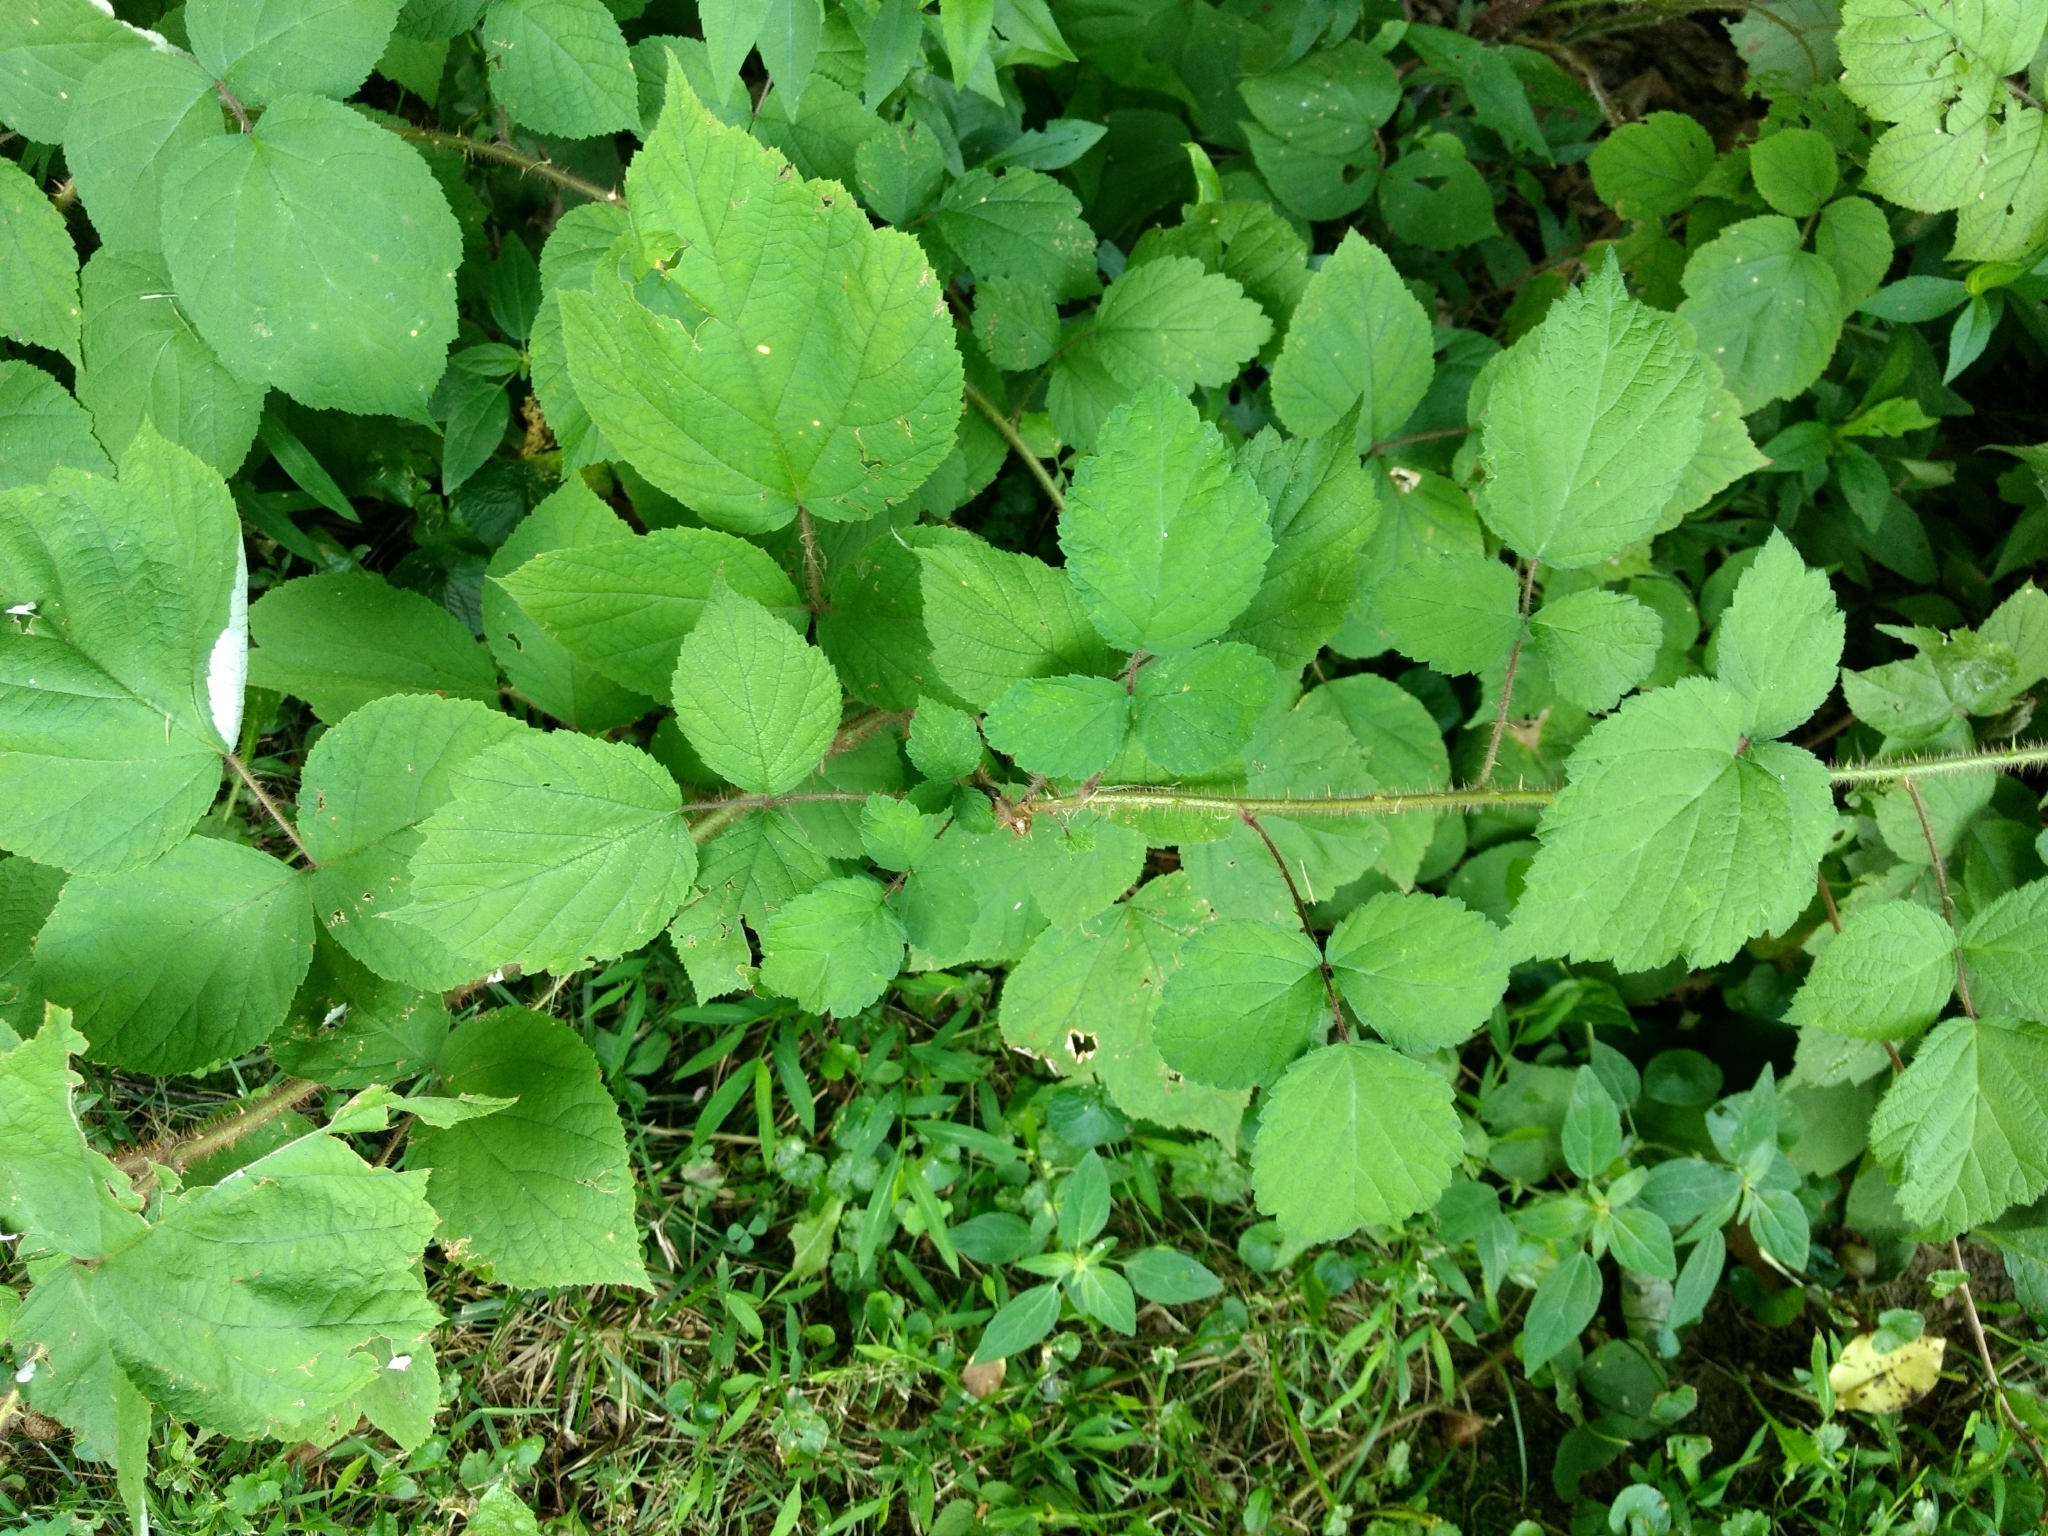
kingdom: Plantae
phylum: Tracheophyta
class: Magnoliopsida
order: Rosales
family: Rosaceae
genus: Rubus
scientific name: Rubus phoenicolasius
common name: Japanese wineberry
